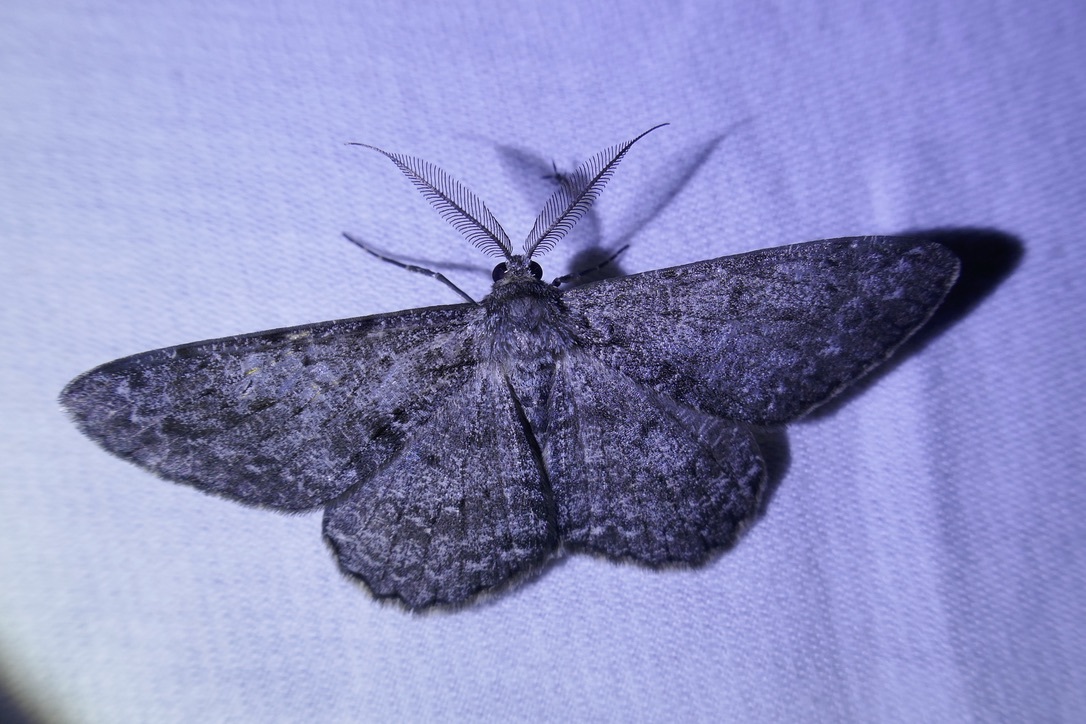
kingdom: Animalia
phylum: Arthropoda
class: Insecta
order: Lepidoptera
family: Geometridae
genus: Hypomecis
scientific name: Hypomecis roboraria
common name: Great oak beauty
